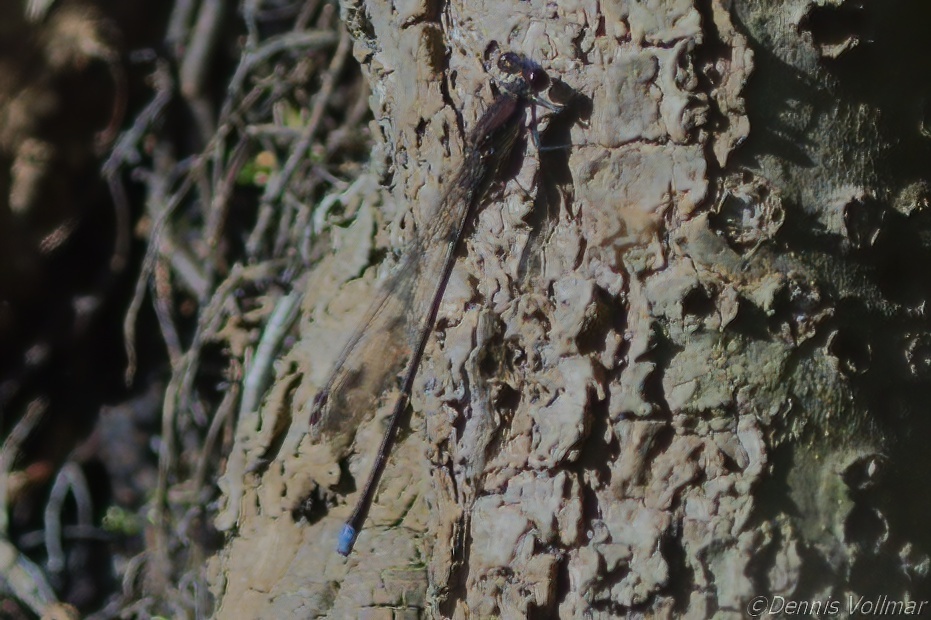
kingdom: Animalia
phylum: Arthropoda
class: Insecta
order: Odonata
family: Coenagrionidae
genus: Argia
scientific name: Argia tibialis
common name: Blue-tipped dancer
